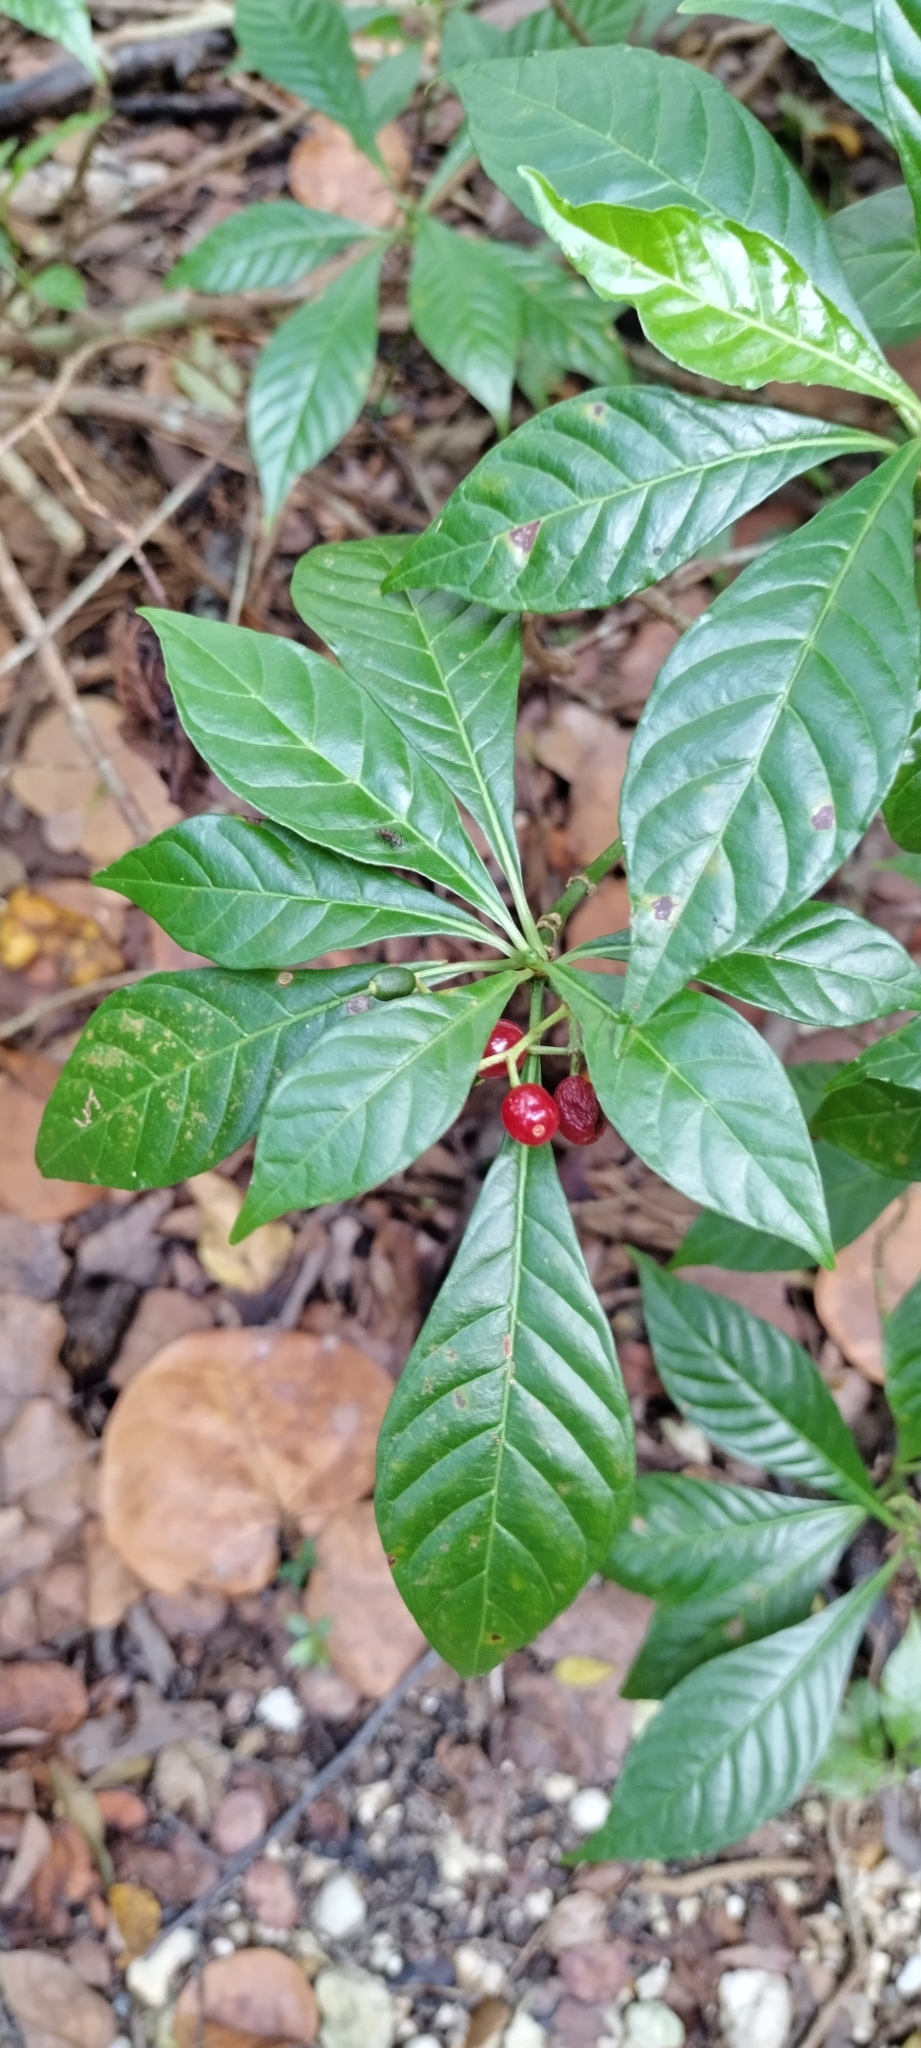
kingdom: Plantae
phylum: Tracheophyta
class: Magnoliopsida
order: Gentianales
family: Rubiaceae
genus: Psychotria
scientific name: Psychotria nervosa
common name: Bastard cankerberry
